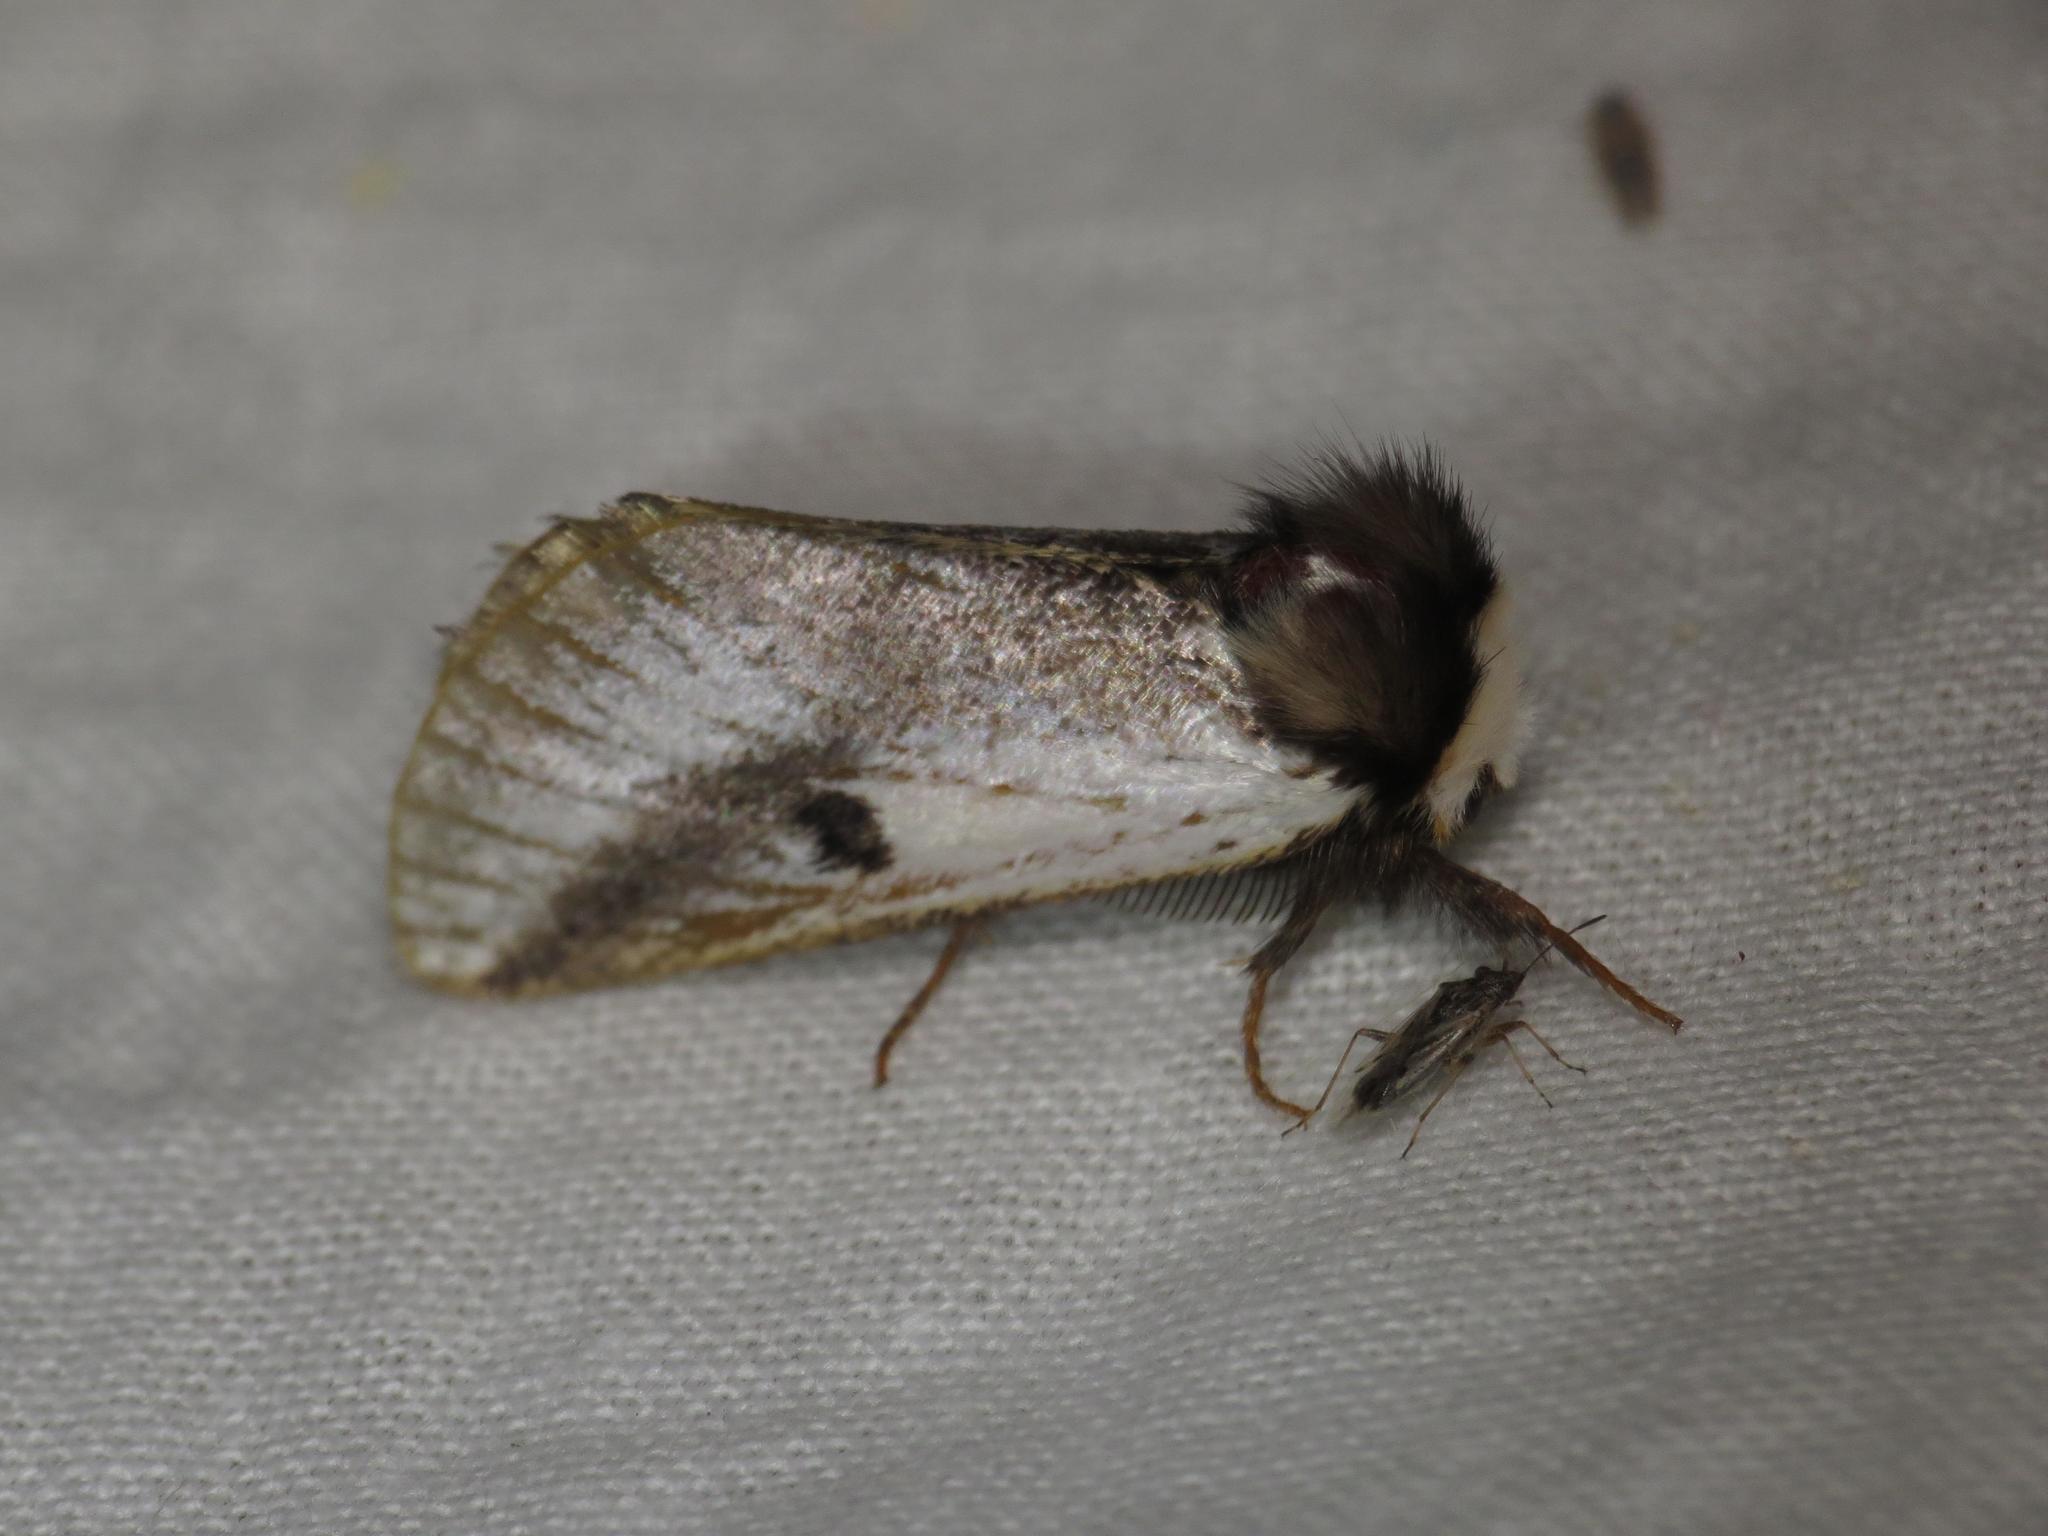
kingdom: Animalia
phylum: Arthropoda
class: Insecta
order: Lepidoptera
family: Notodontidae
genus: Epicoma
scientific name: Epicoma melanospila
